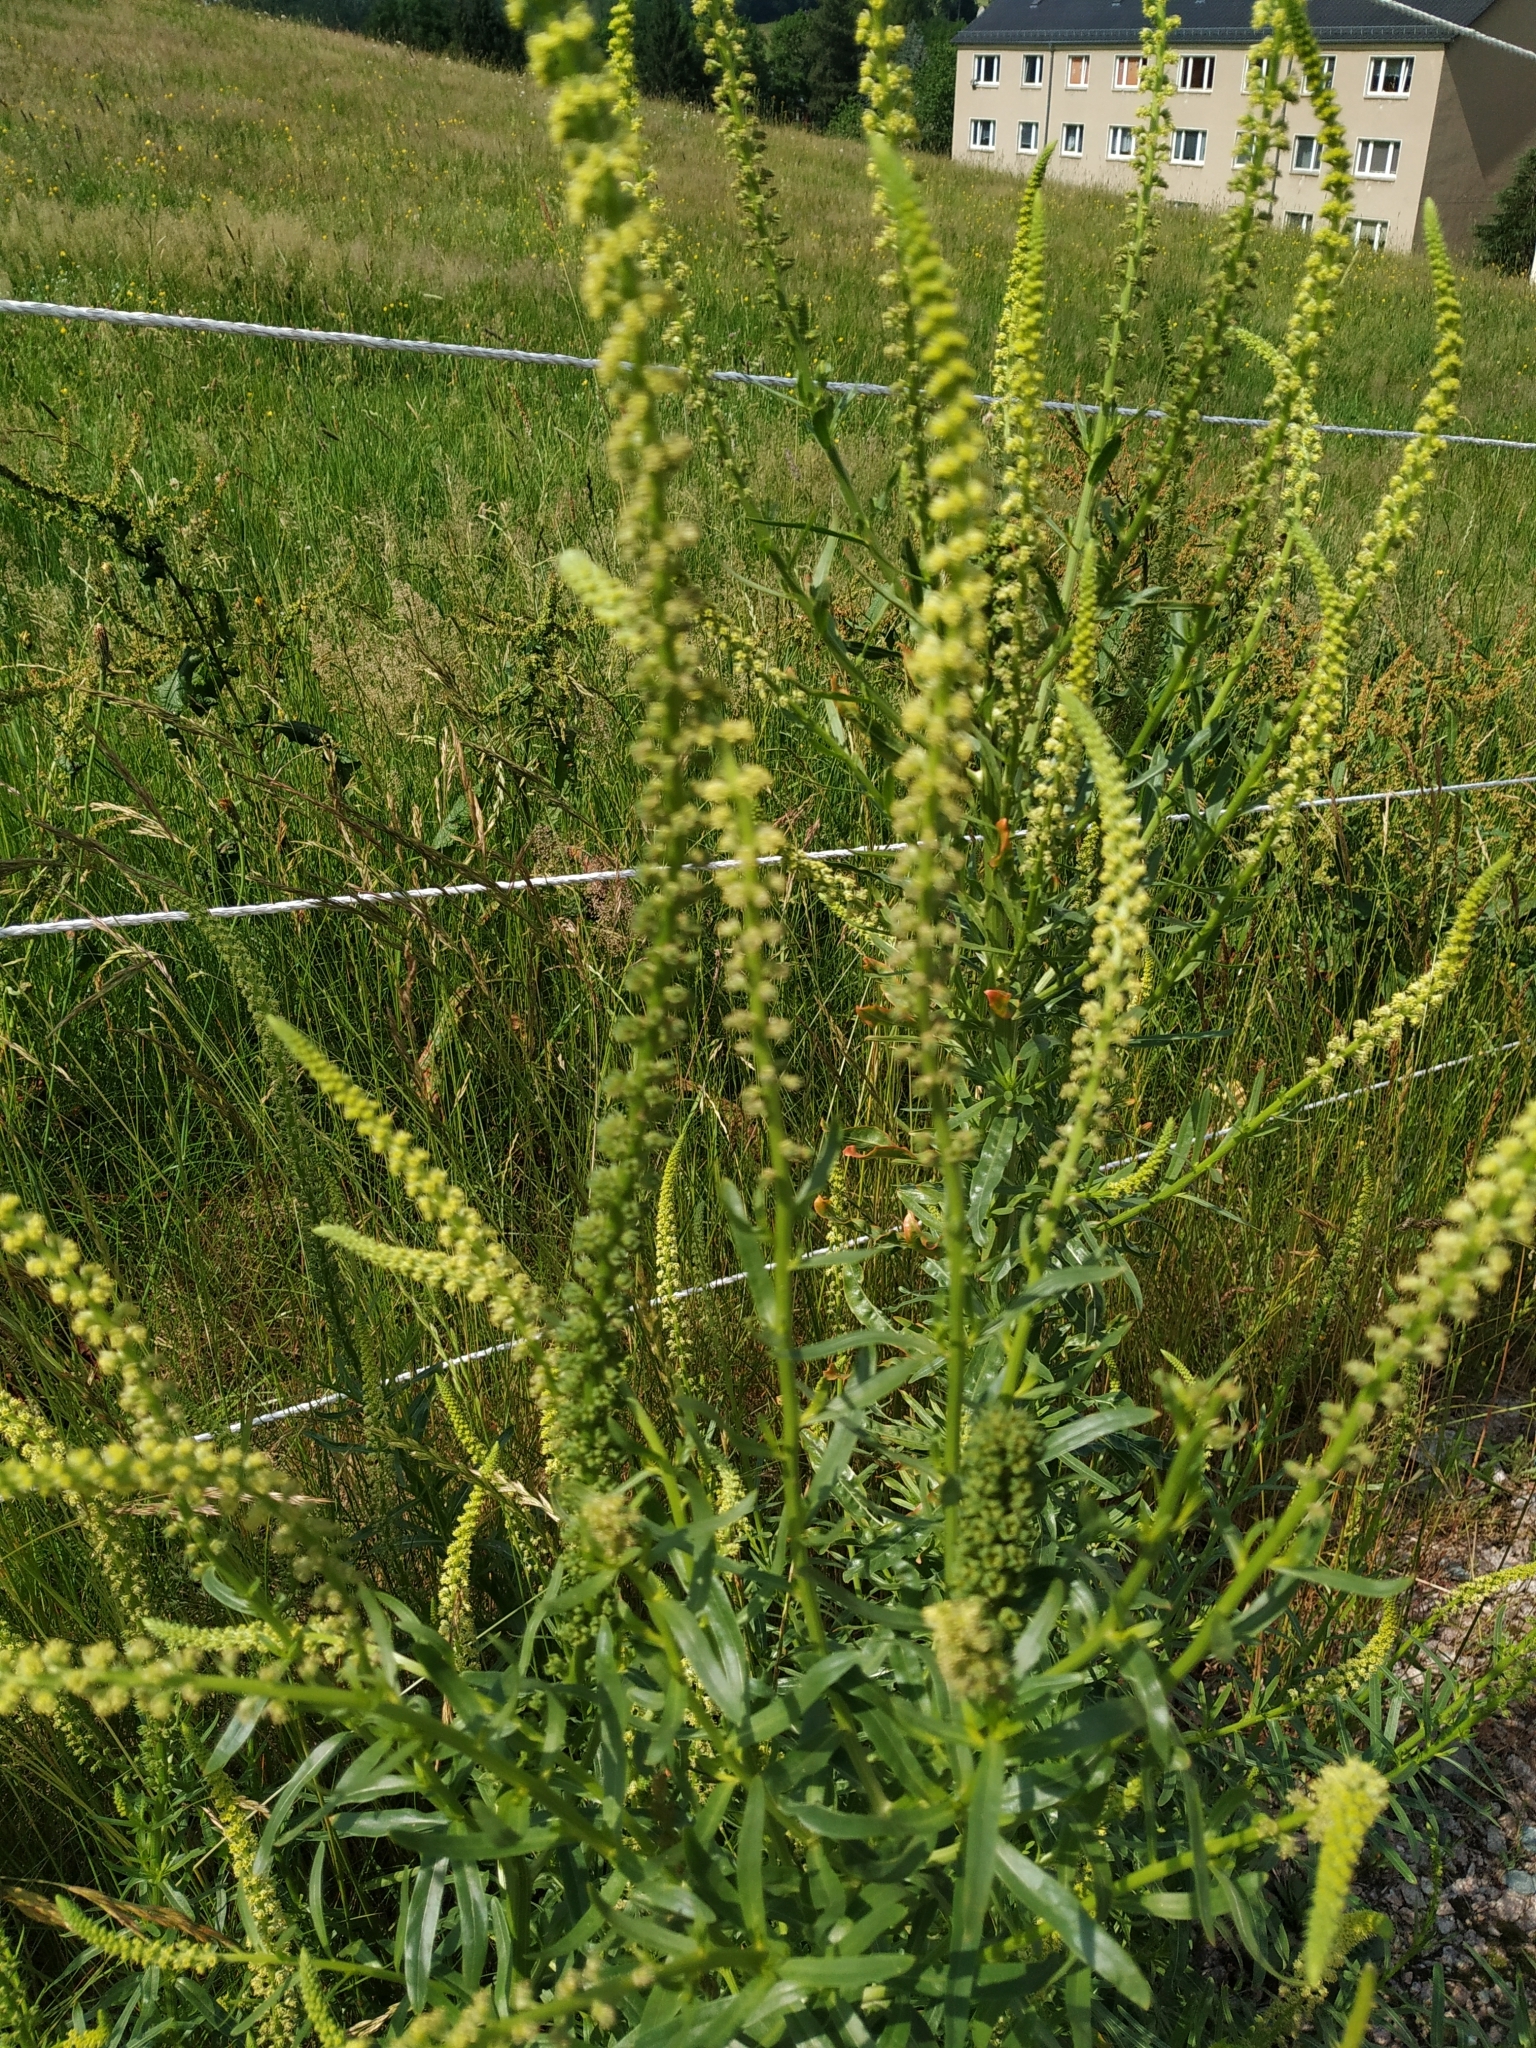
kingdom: Plantae
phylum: Tracheophyta
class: Magnoliopsida
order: Brassicales
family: Resedaceae
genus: Reseda
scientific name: Reseda luteola
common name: Weld
